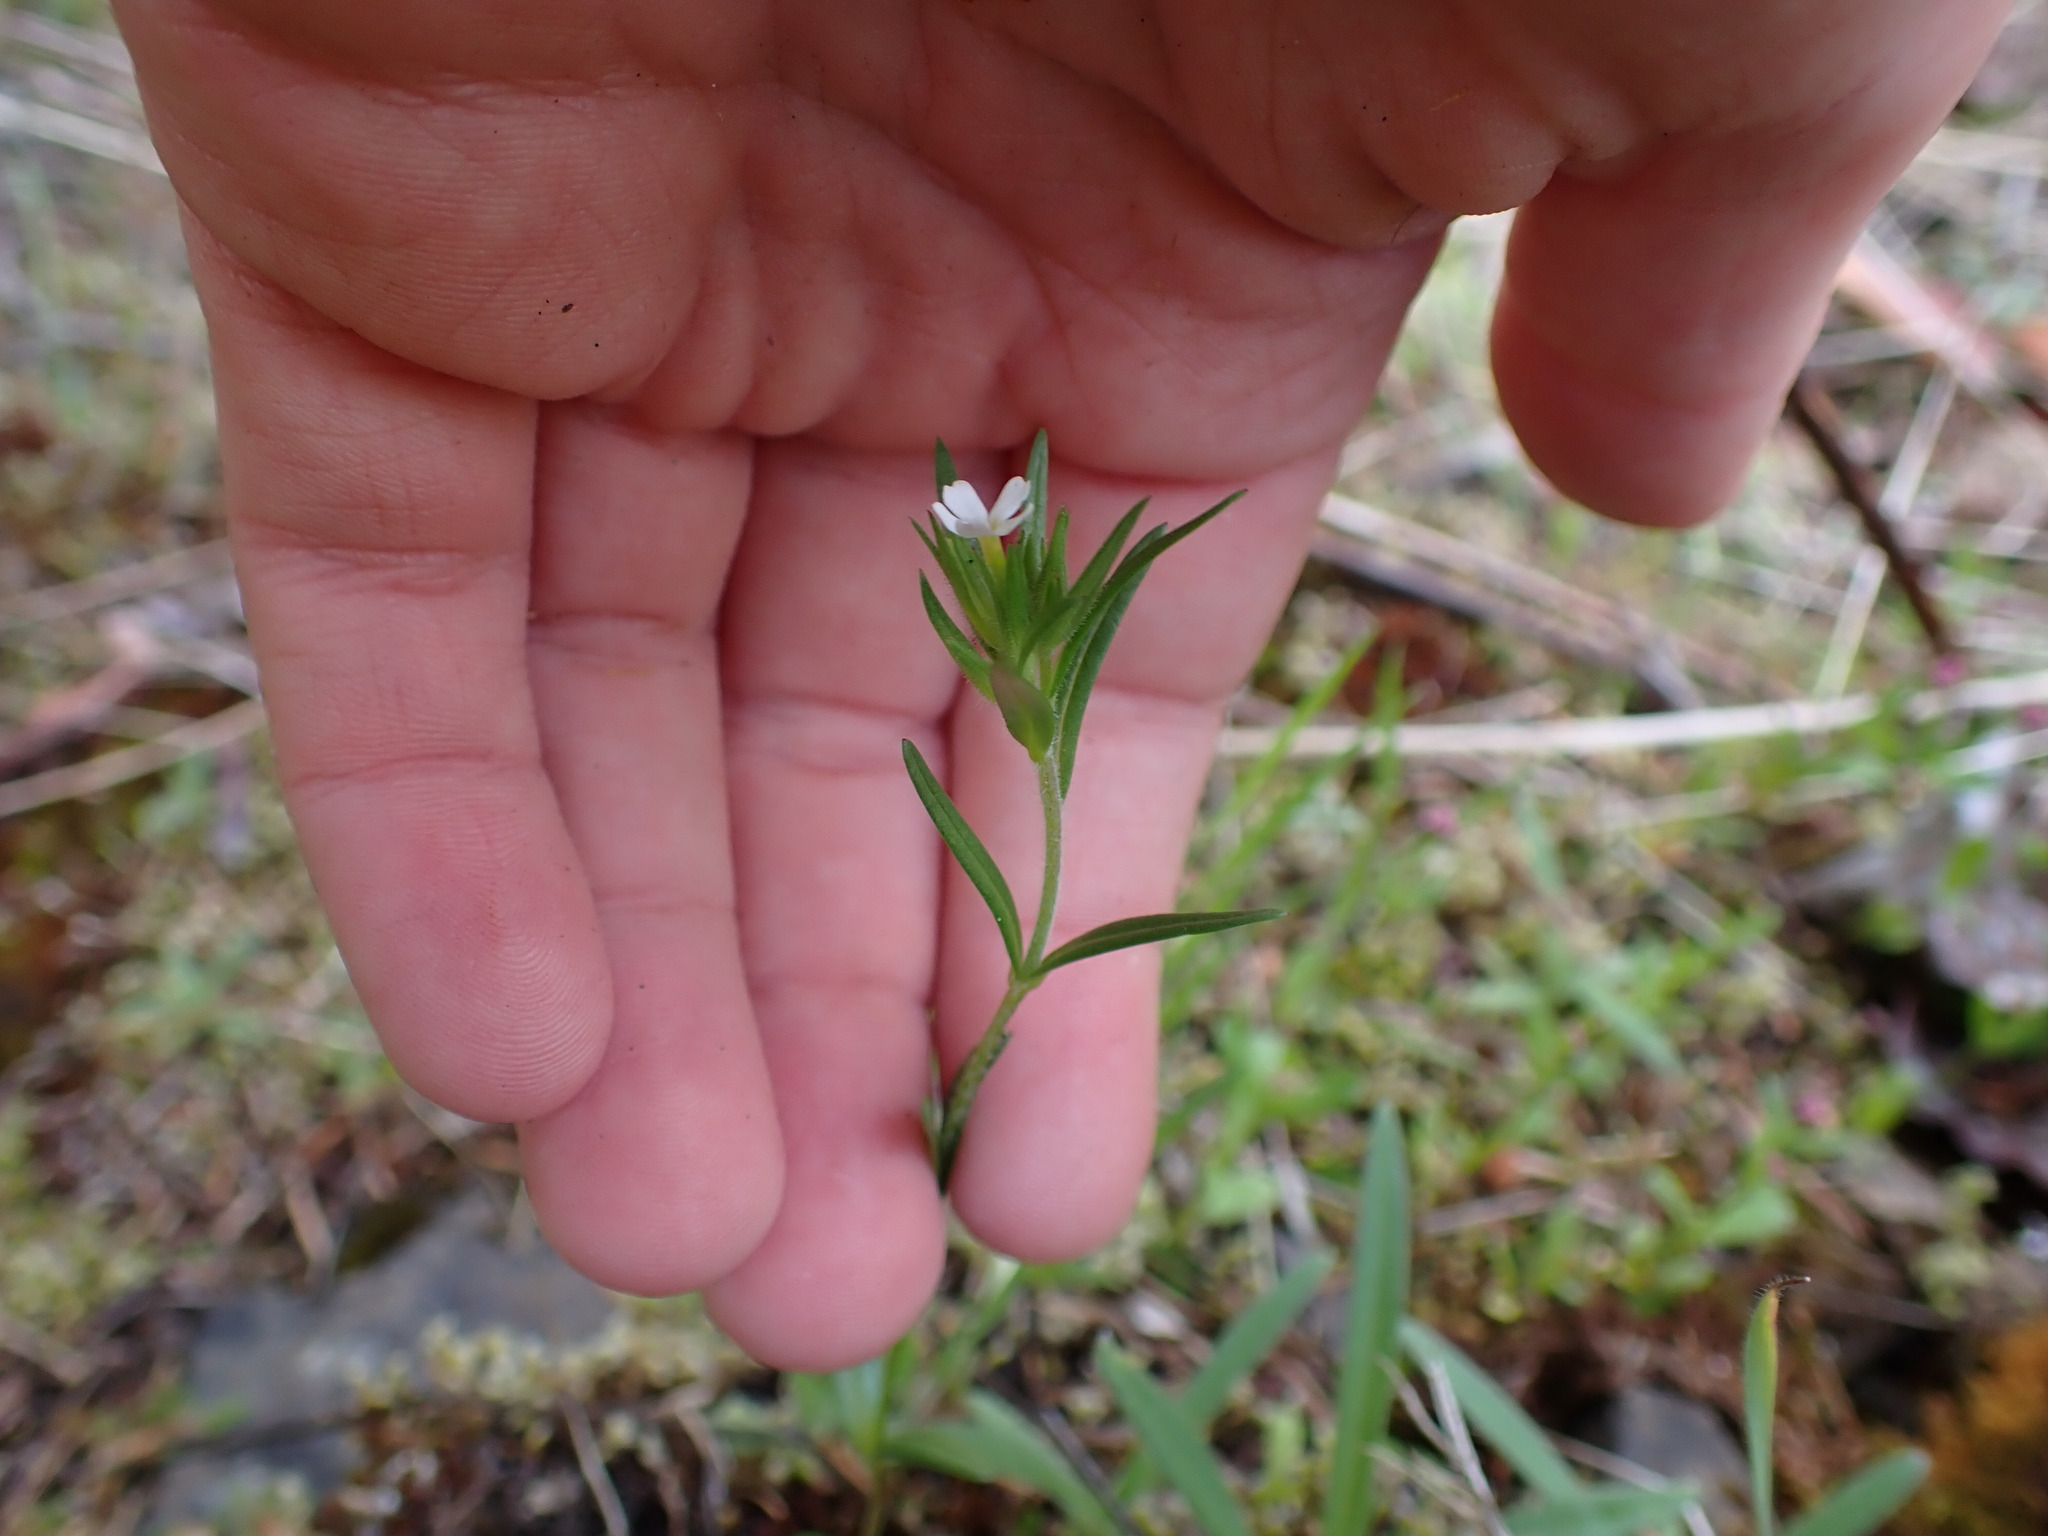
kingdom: Plantae
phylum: Tracheophyta
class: Magnoliopsida
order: Ericales
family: Polemoniaceae
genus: Phlox
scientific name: Phlox gracilis
